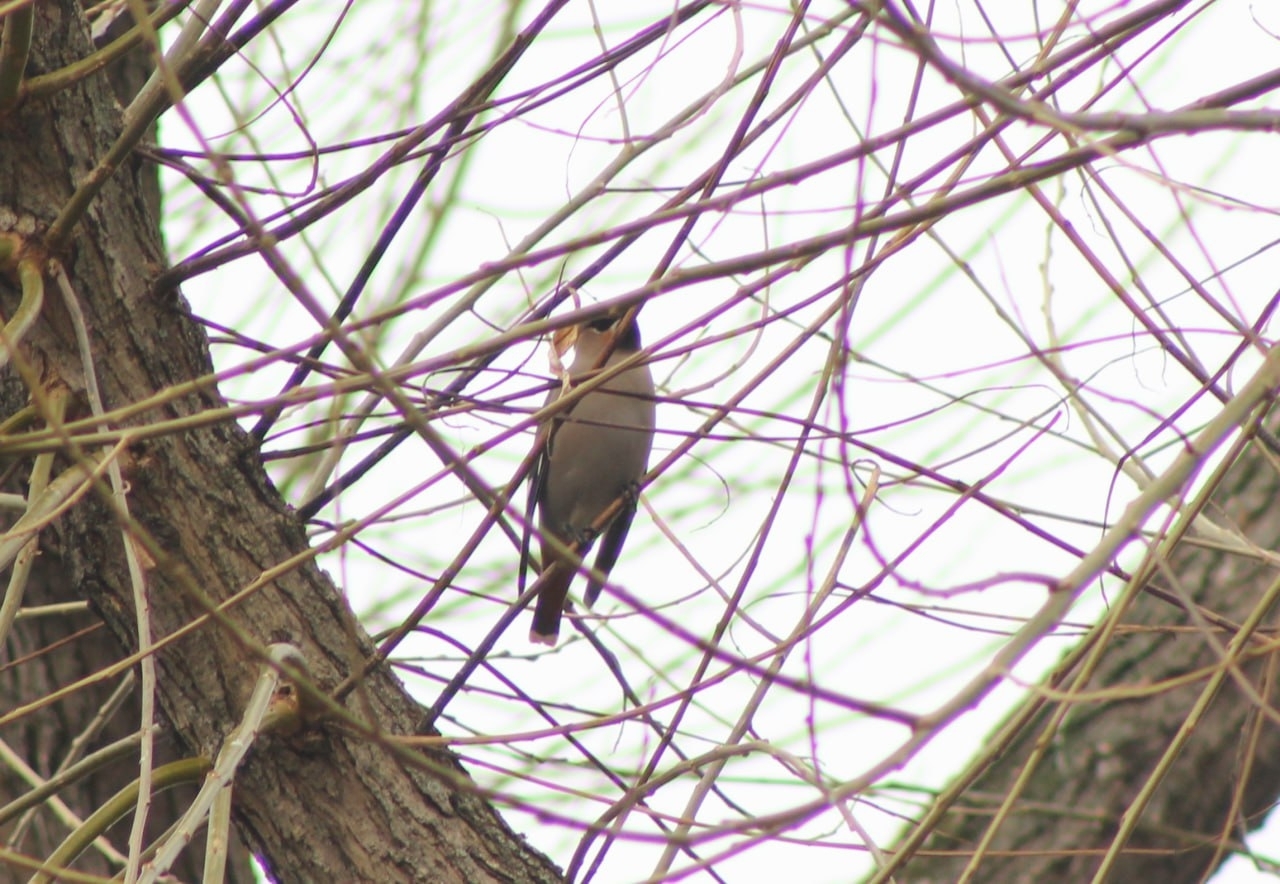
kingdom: Animalia
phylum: Chordata
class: Aves
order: Passeriformes
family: Bombycillidae
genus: Bombycilla
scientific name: Bombycilla garrulus
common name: Bohemian waxwing
